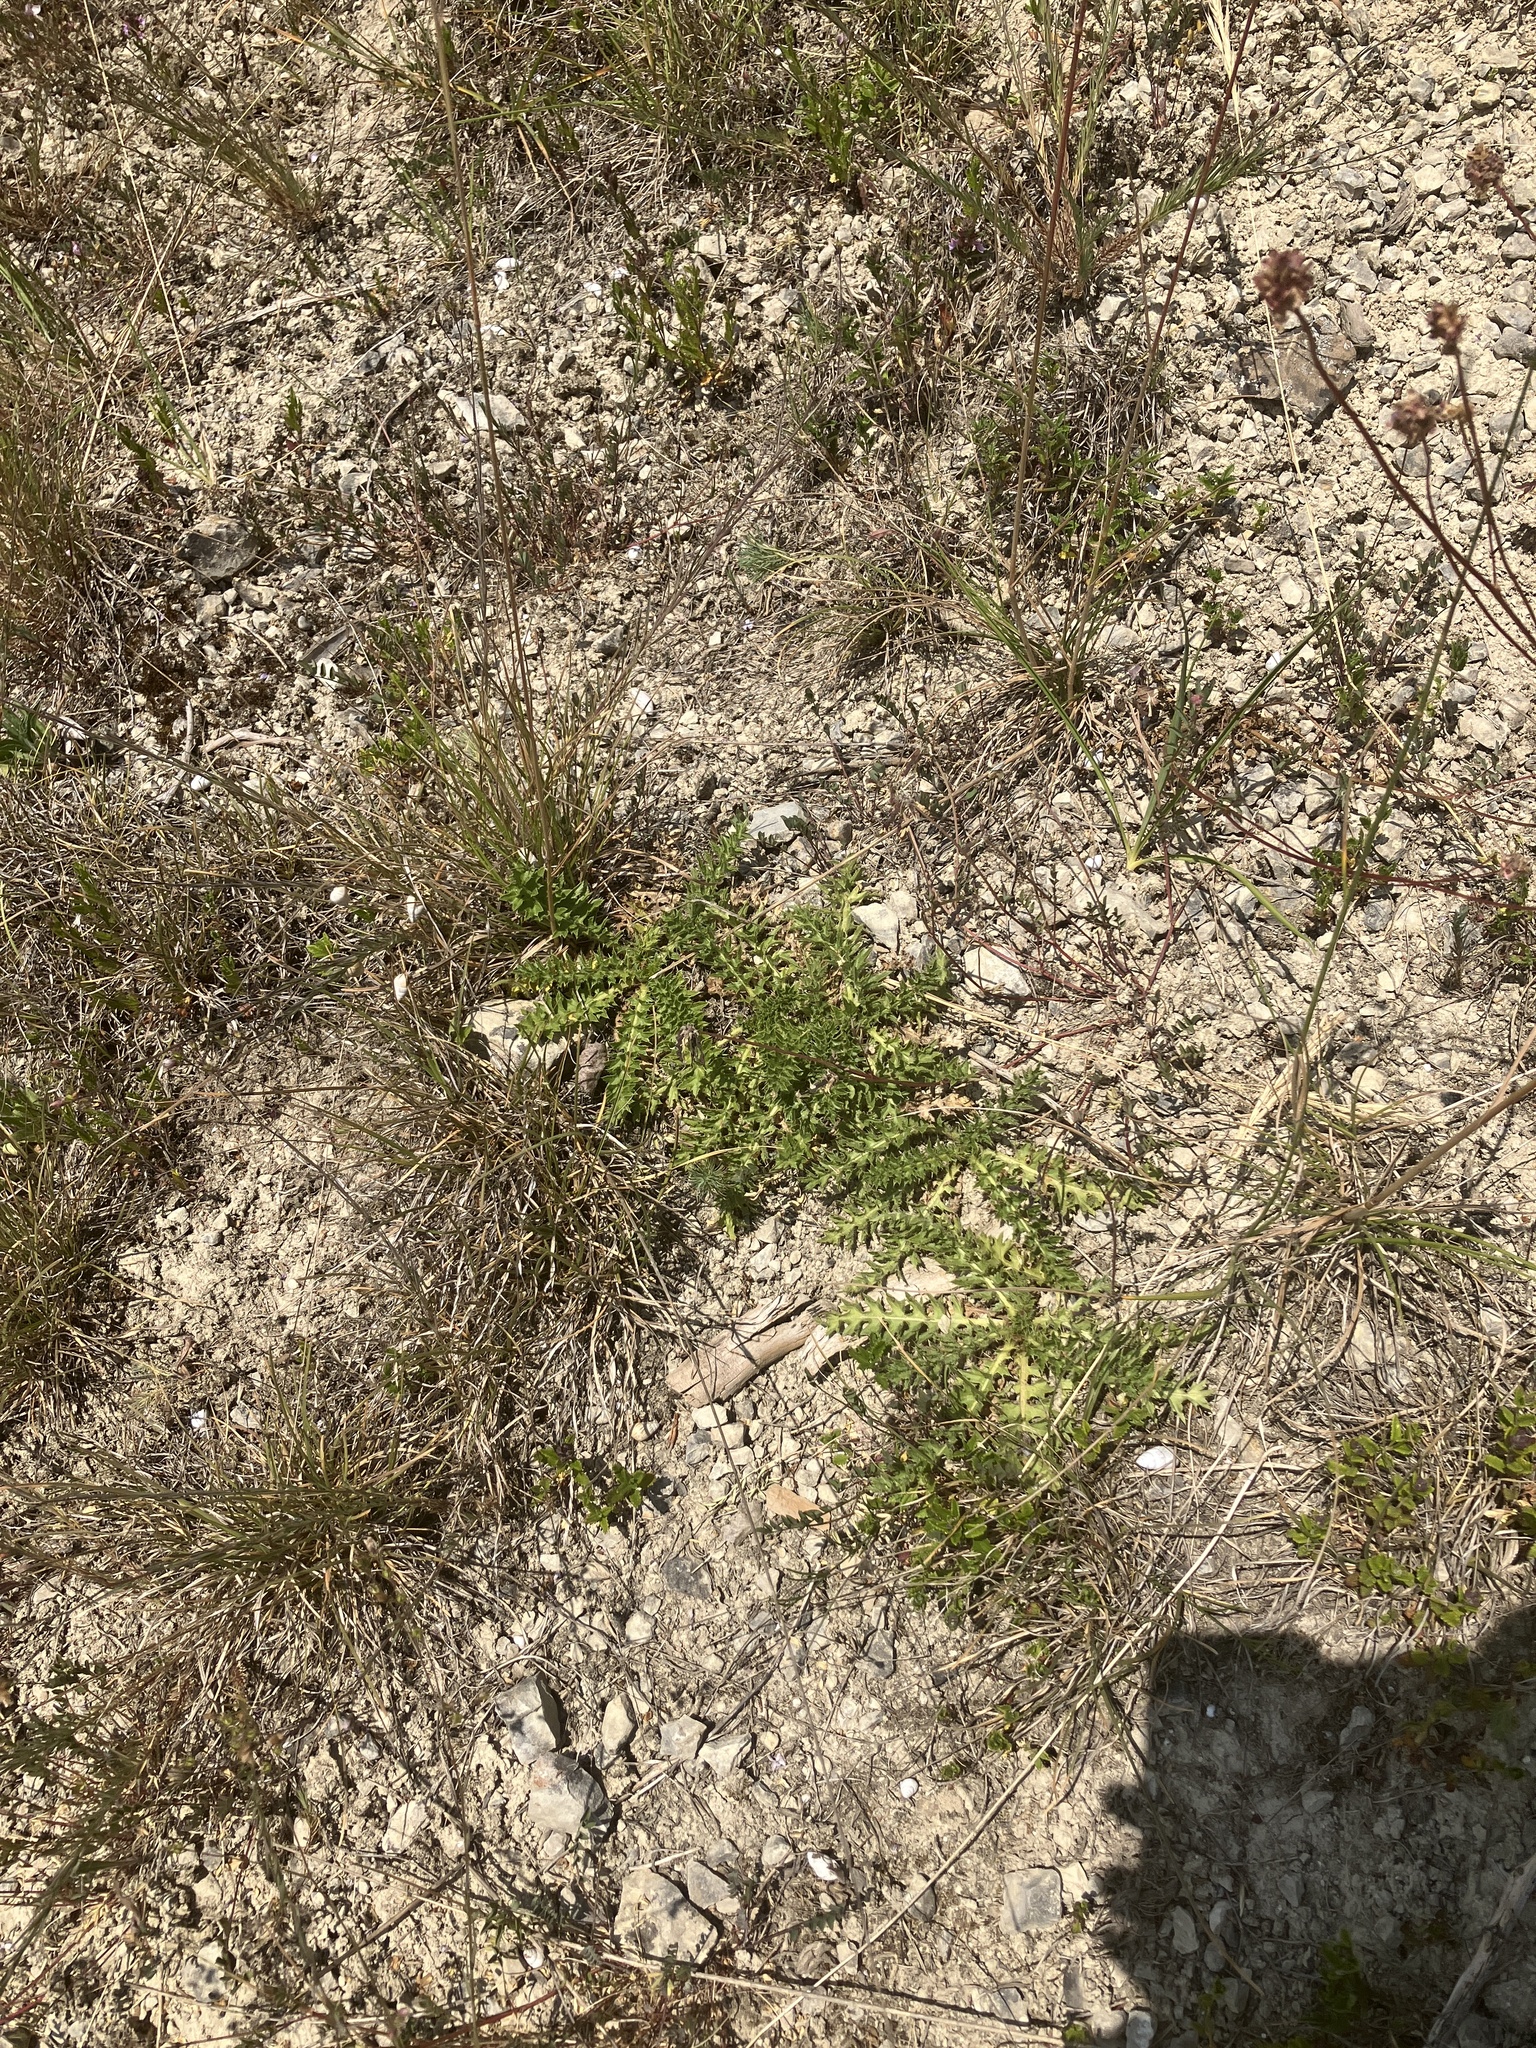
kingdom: Plantae
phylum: Tracheophyta
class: Magnoliopsida
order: Asterales
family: Asteraceae
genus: Cirsium
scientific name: Cirsium acaulon
